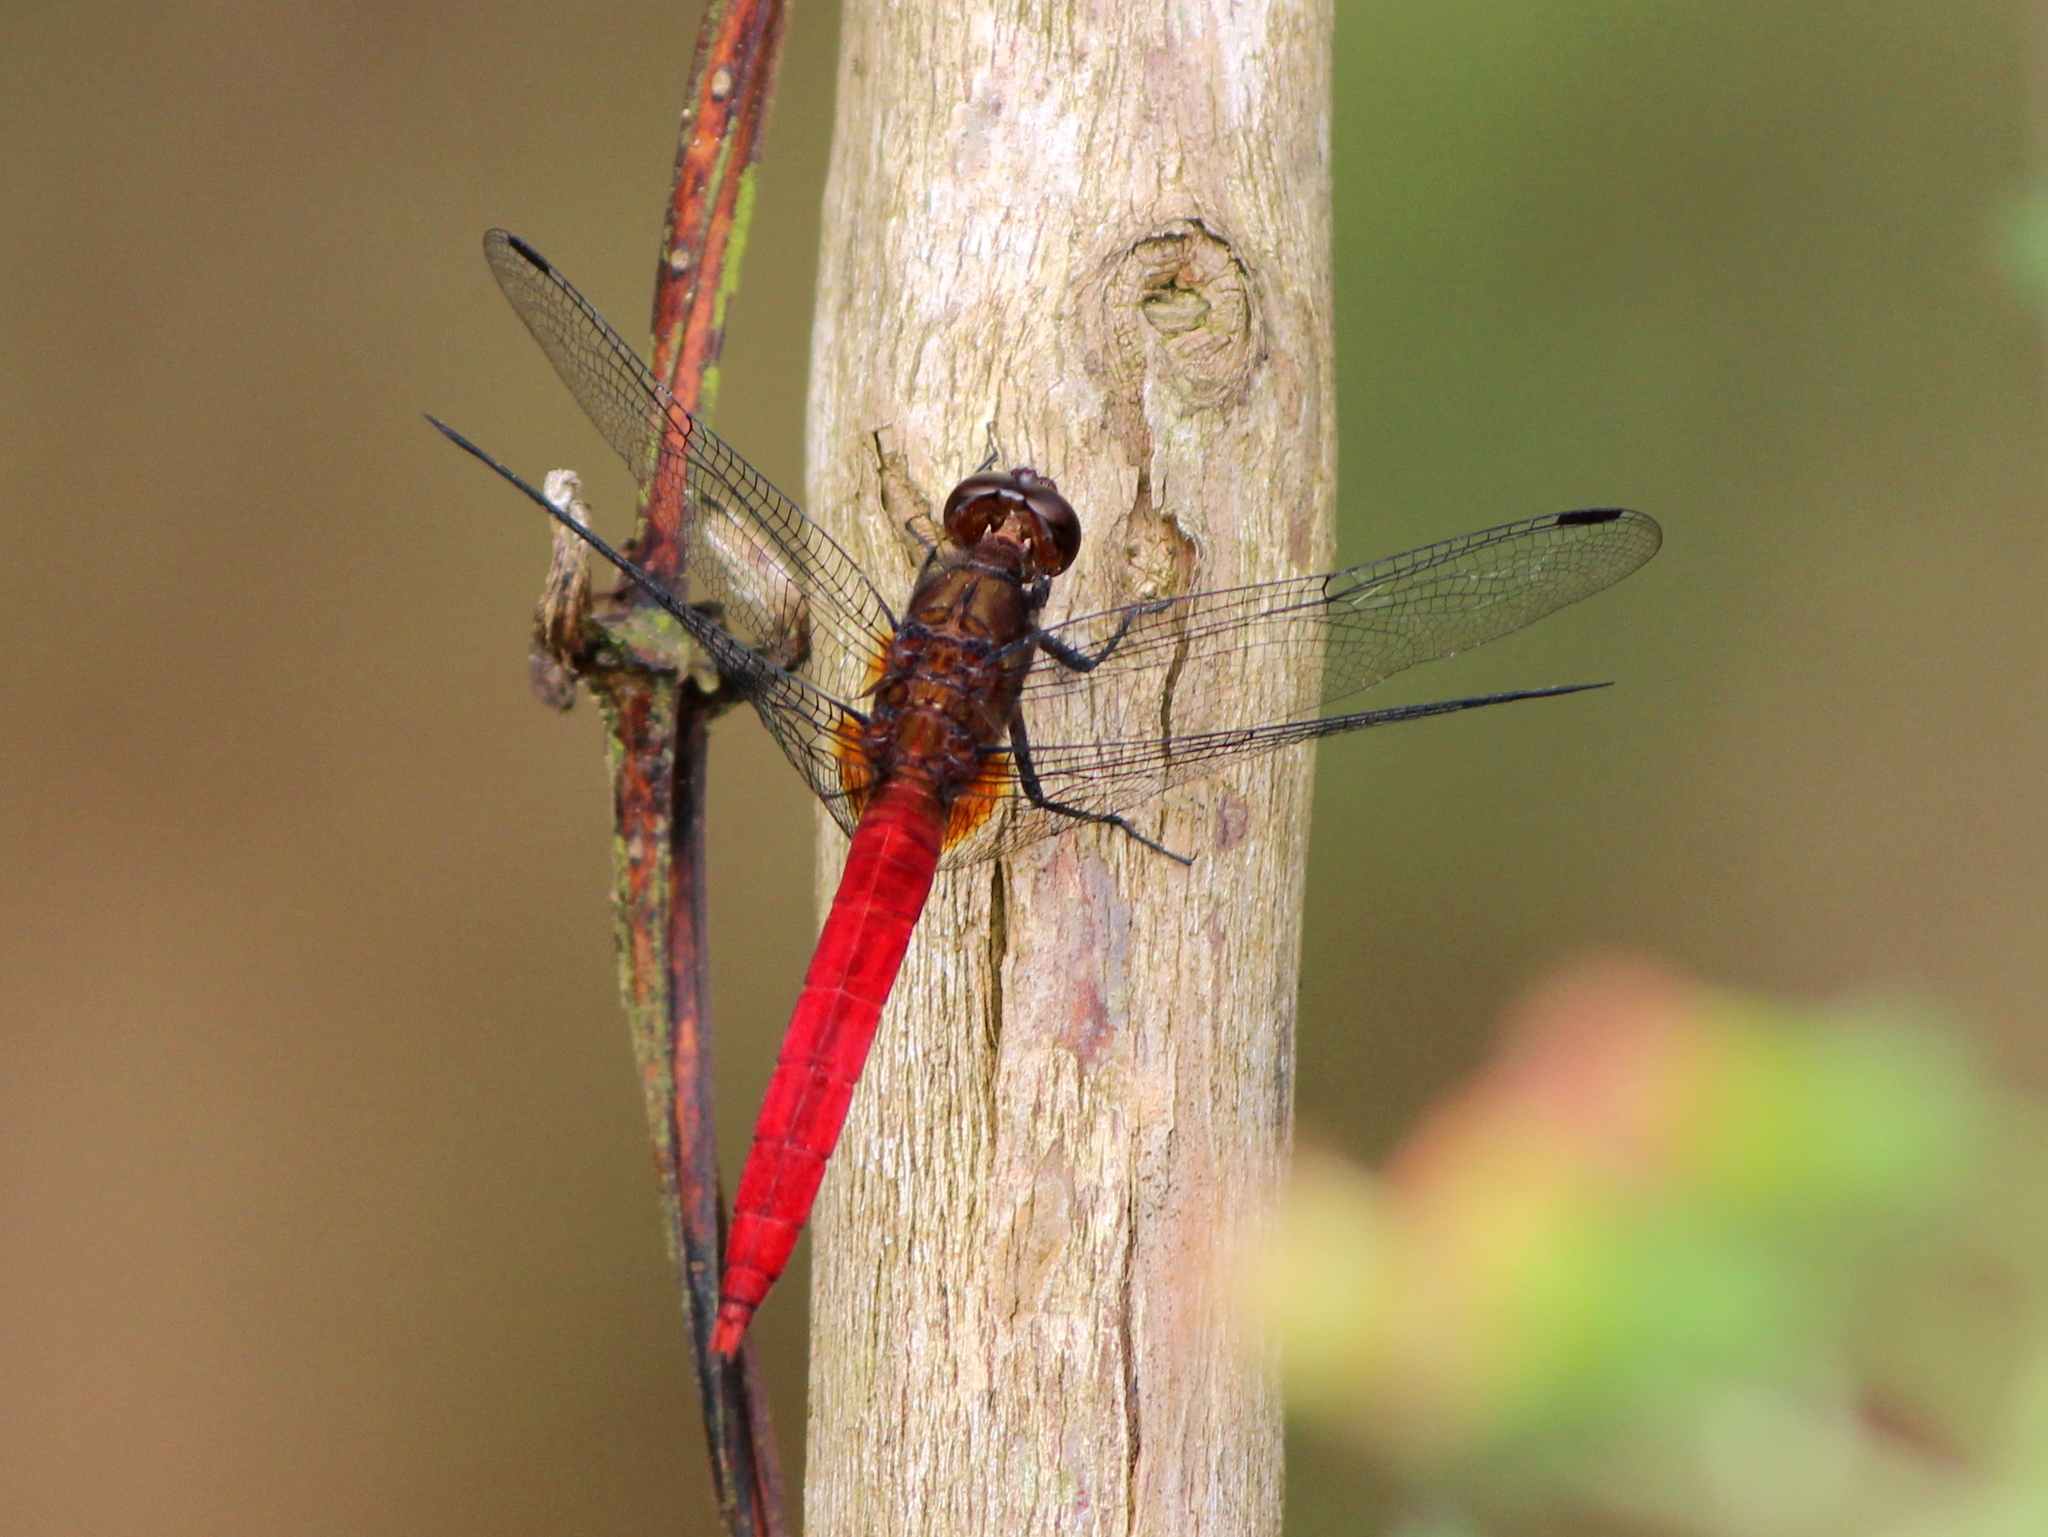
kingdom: Animalia
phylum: Arthropoda
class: Insecta
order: Odonata
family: Libellulidae
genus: Orthetrum
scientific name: Orthetrum chrysis
